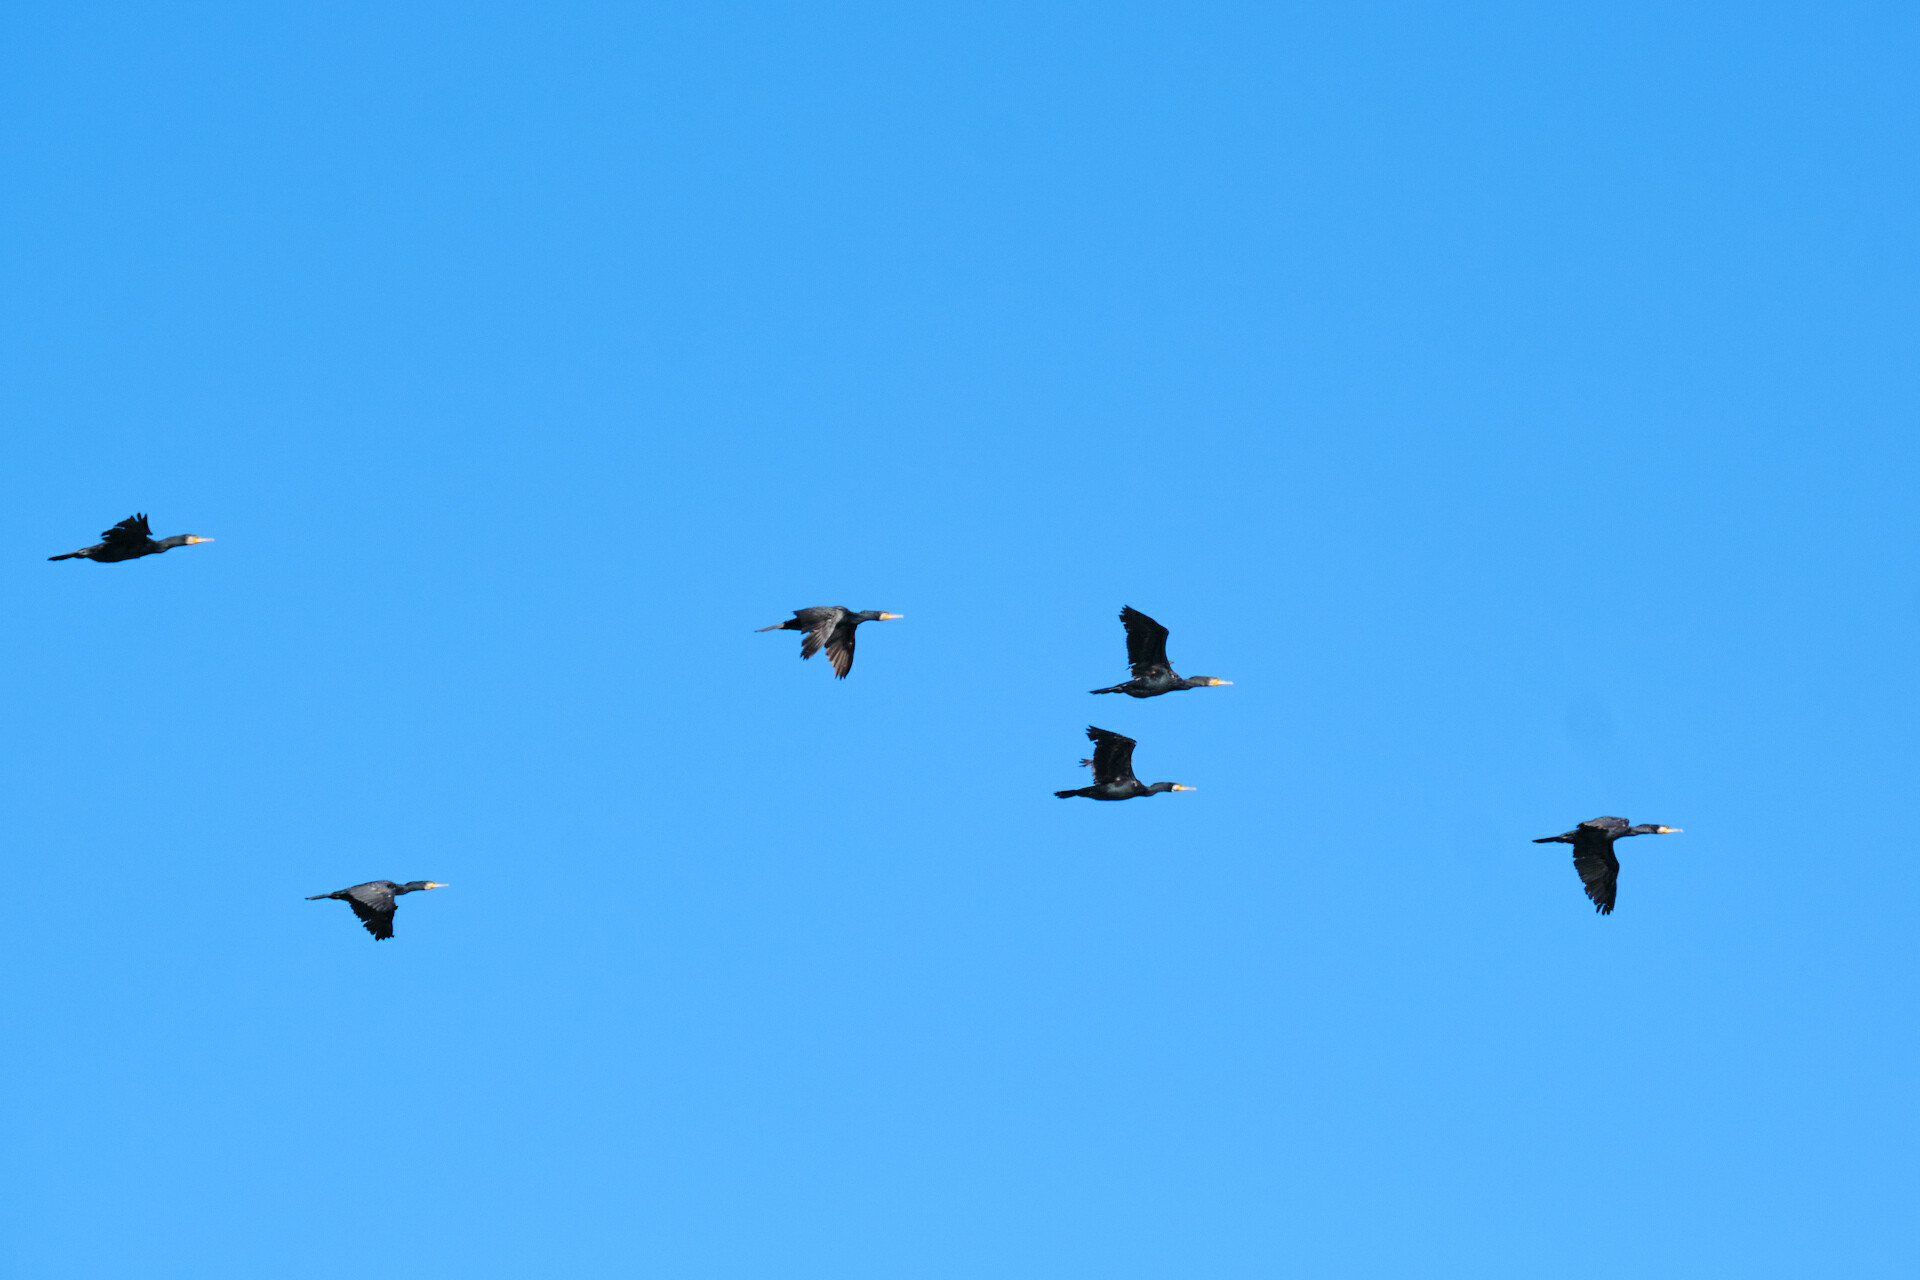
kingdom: Animalia
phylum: Chordata
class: Aves
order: Suliformes
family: Phalacrocoracidae
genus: Phalacrocorax
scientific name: Phalacrocorax carbo
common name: Great cormorant
